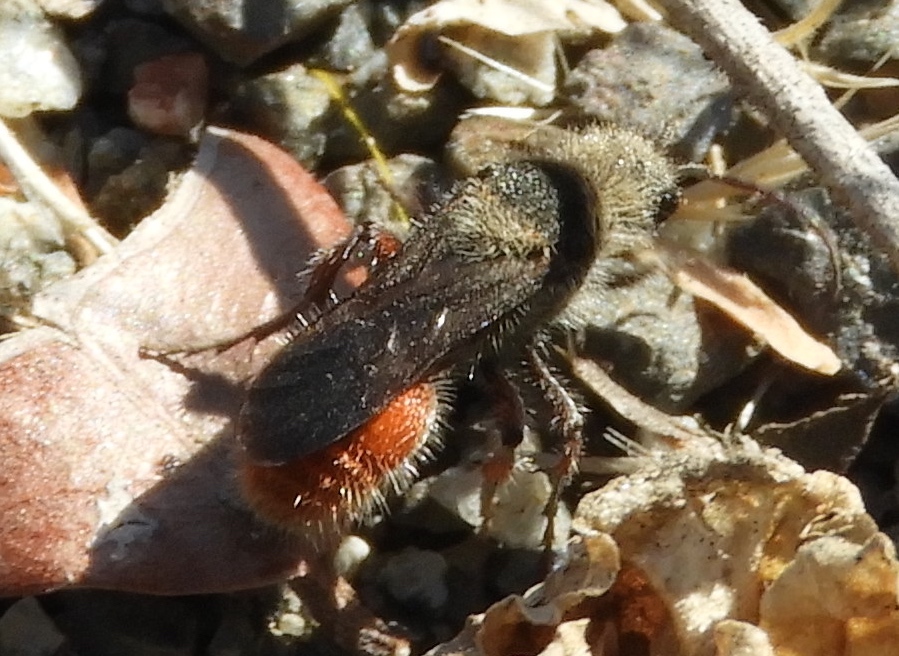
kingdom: Animalia
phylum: Arthropoda
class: Insecta
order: Hymenoptera
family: Mutillidae
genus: Dasymutilla
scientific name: Dasymutilla foxi
